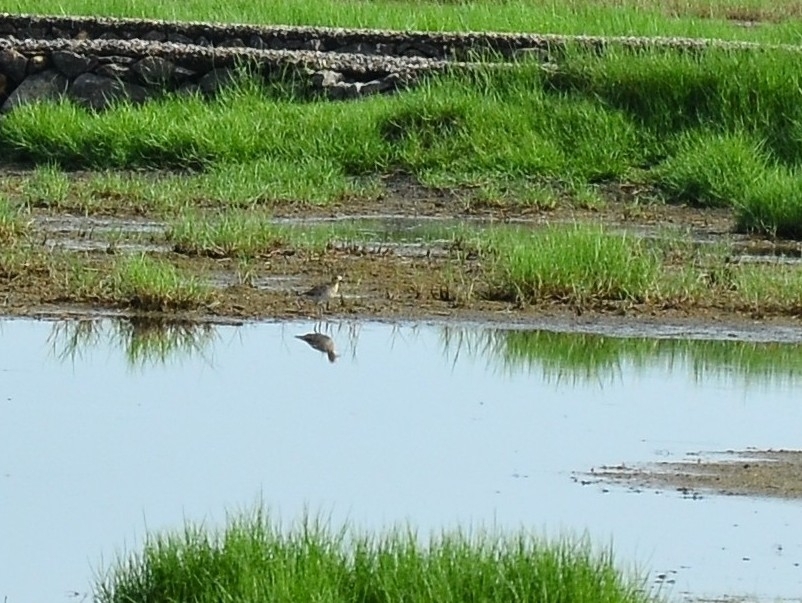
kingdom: Animalia
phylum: Chordata
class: Aves
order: Charadriiformes
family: Charadriidae
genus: Pluvialis
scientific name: Pluvialis fulva
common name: Pacific golden plover
